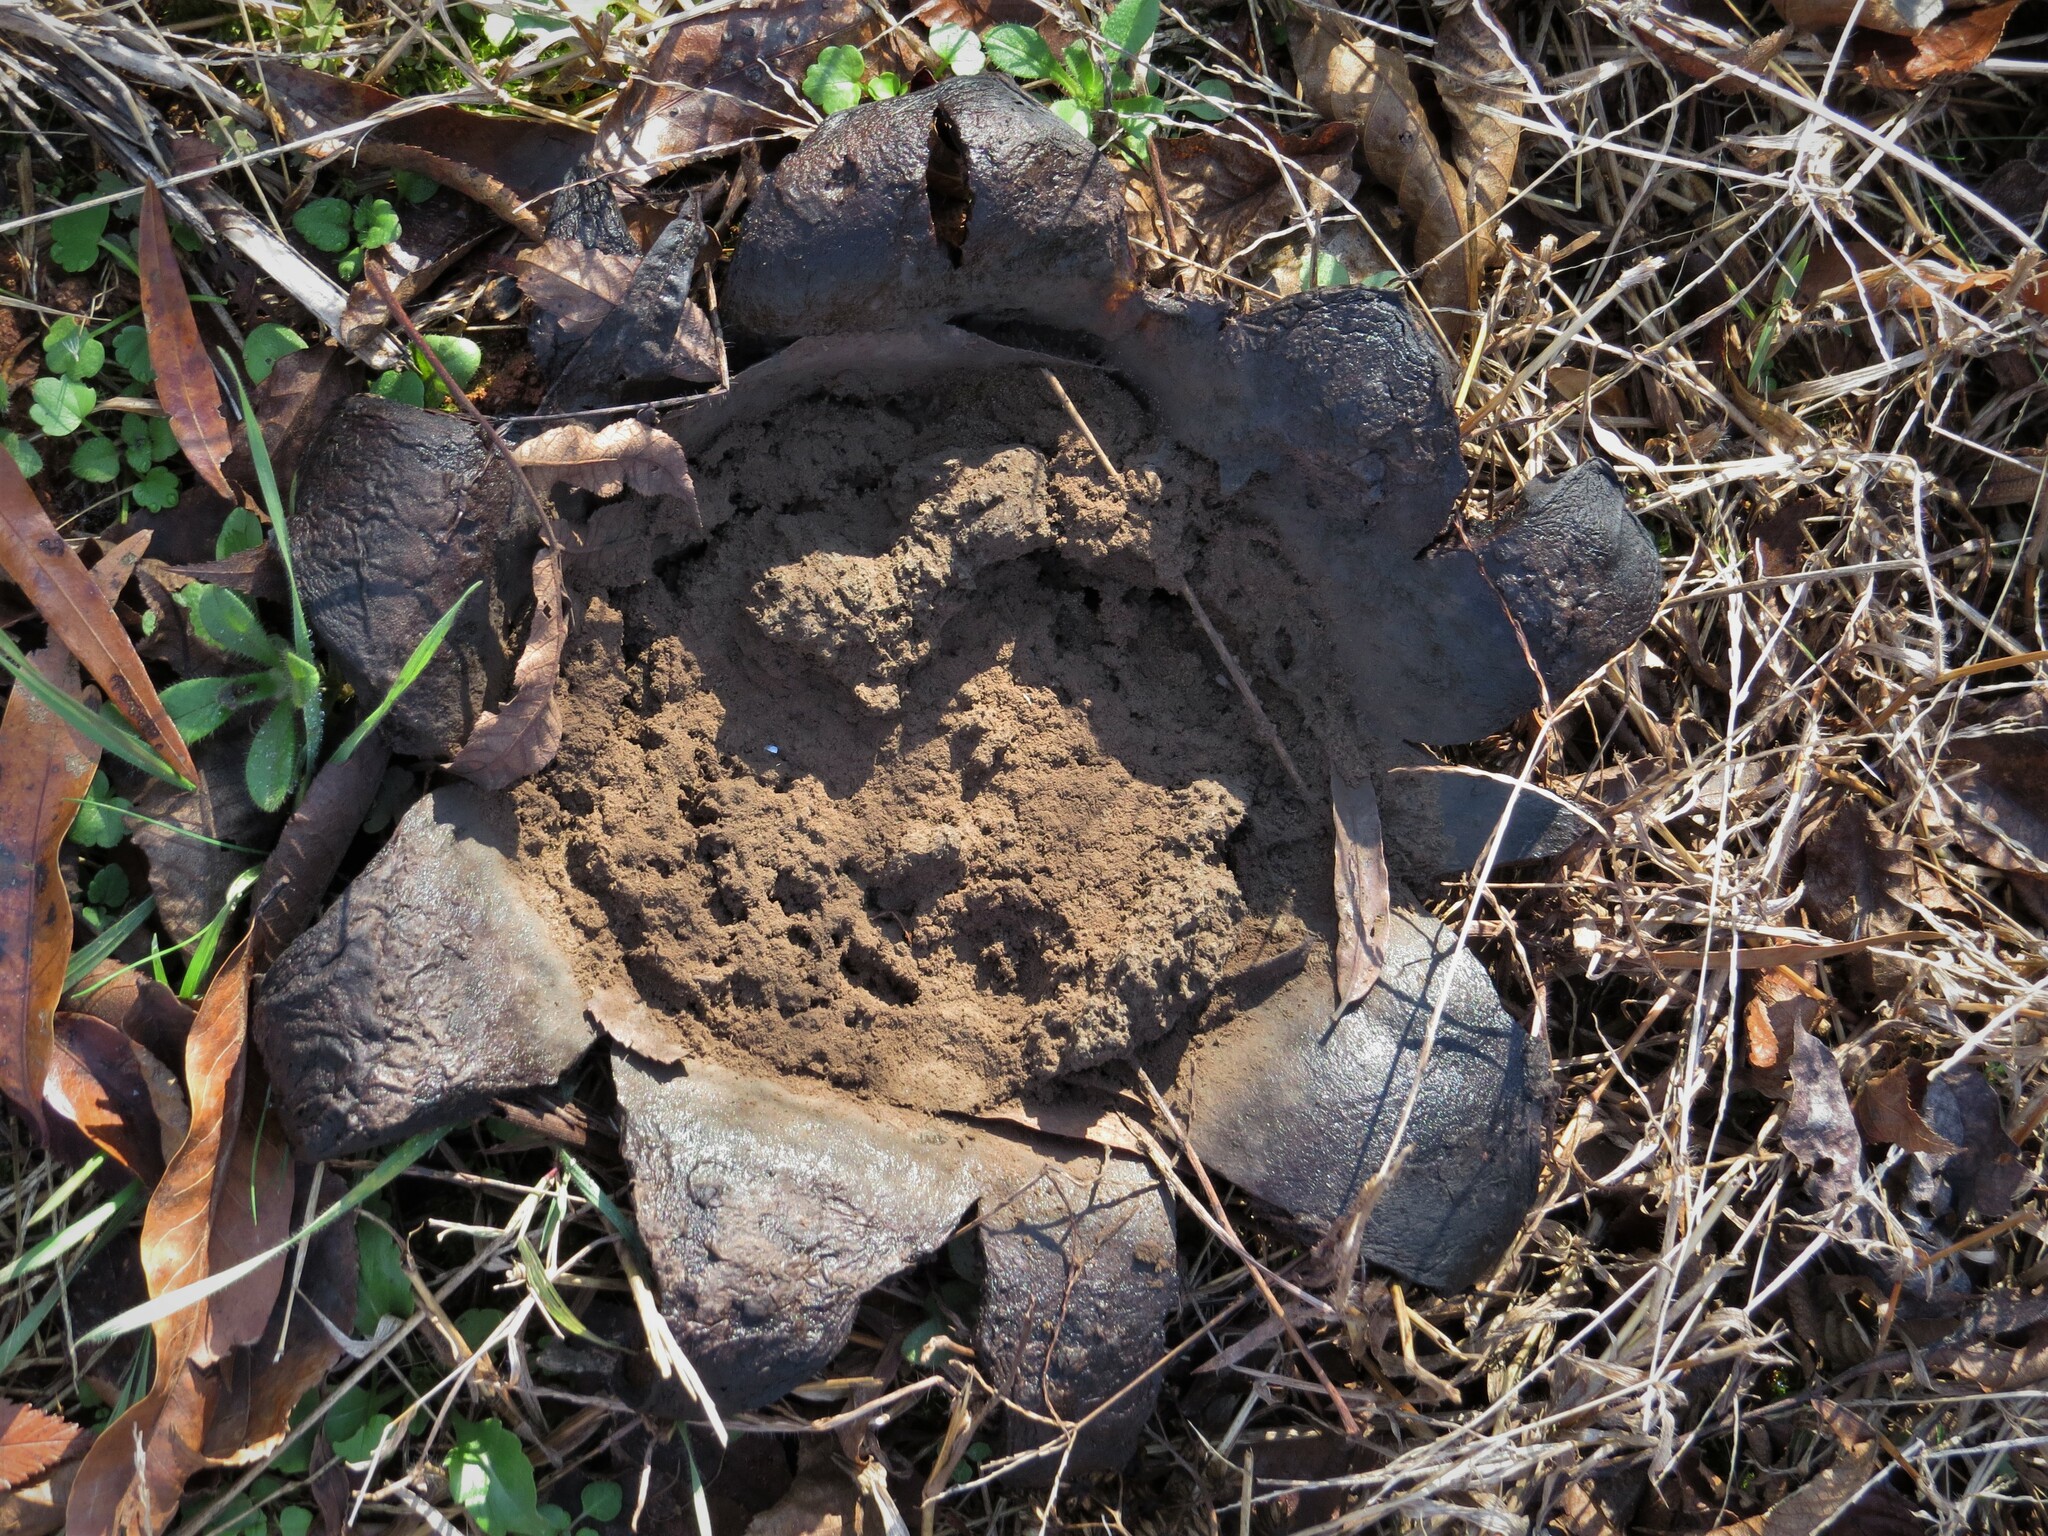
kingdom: Fungi
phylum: Basidiomycota
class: Agaricomycetes
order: Boletales
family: Sclerodermataceae
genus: Scleroderma
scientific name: Scleroderma polyrhizum
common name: Many-rooted earthball
